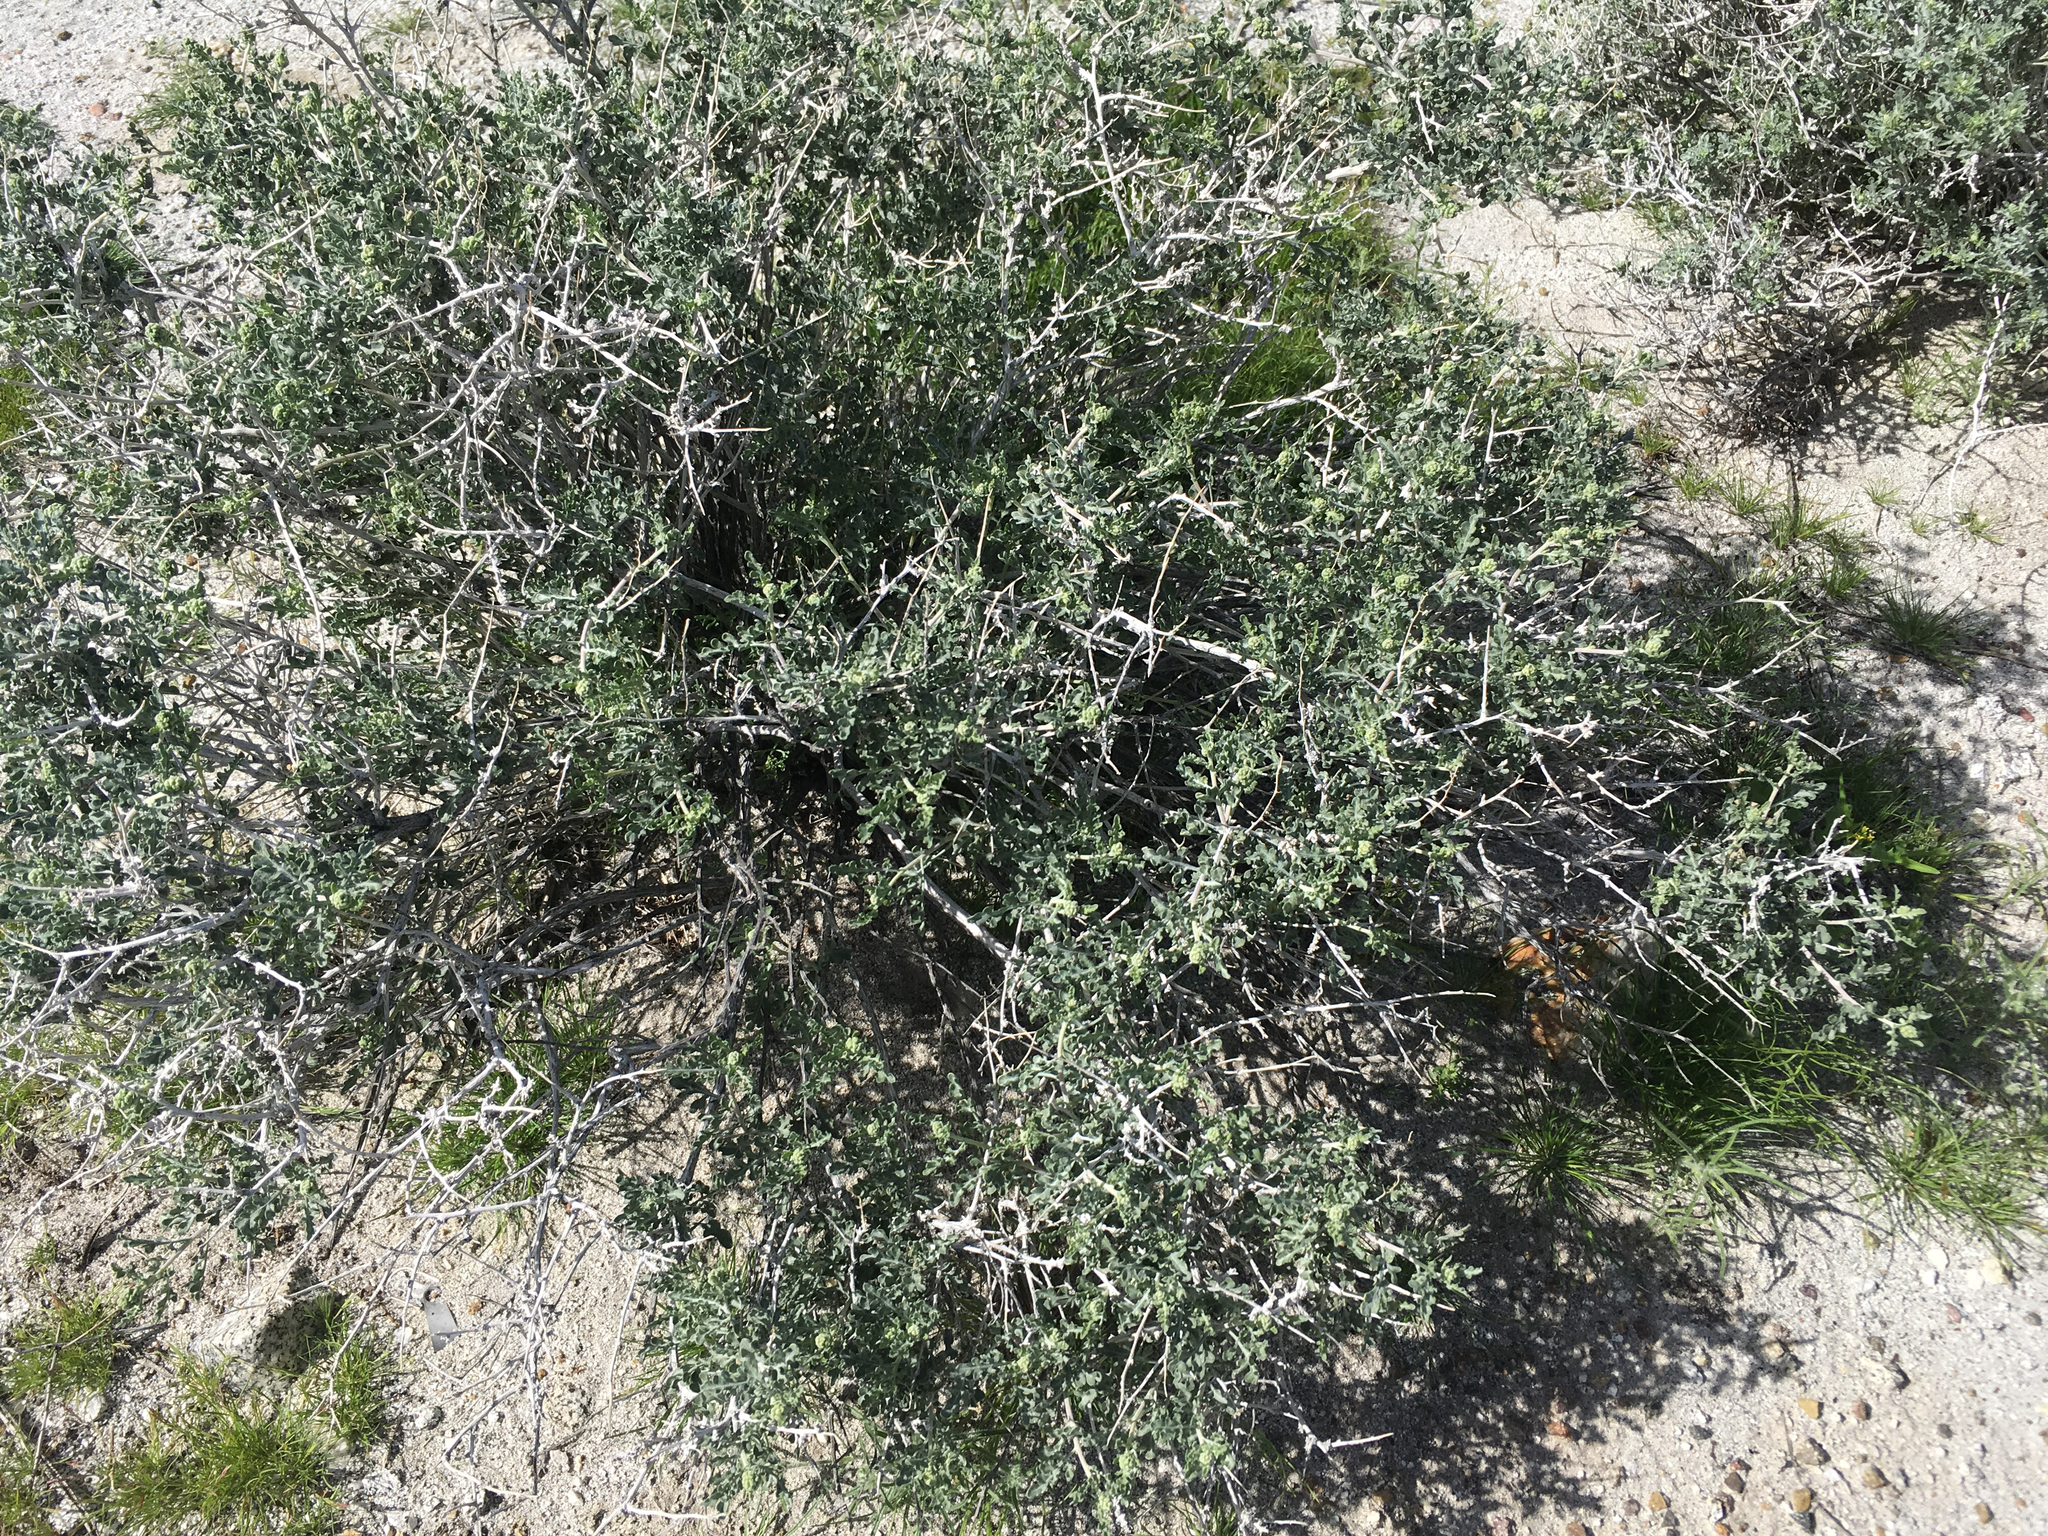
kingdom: Plantae
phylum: Tracheophyta
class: Magnoliopsida
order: Asterales
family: Asteraceae
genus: Ambrosia
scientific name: Ambrosia dumosa
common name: Bur-sage
